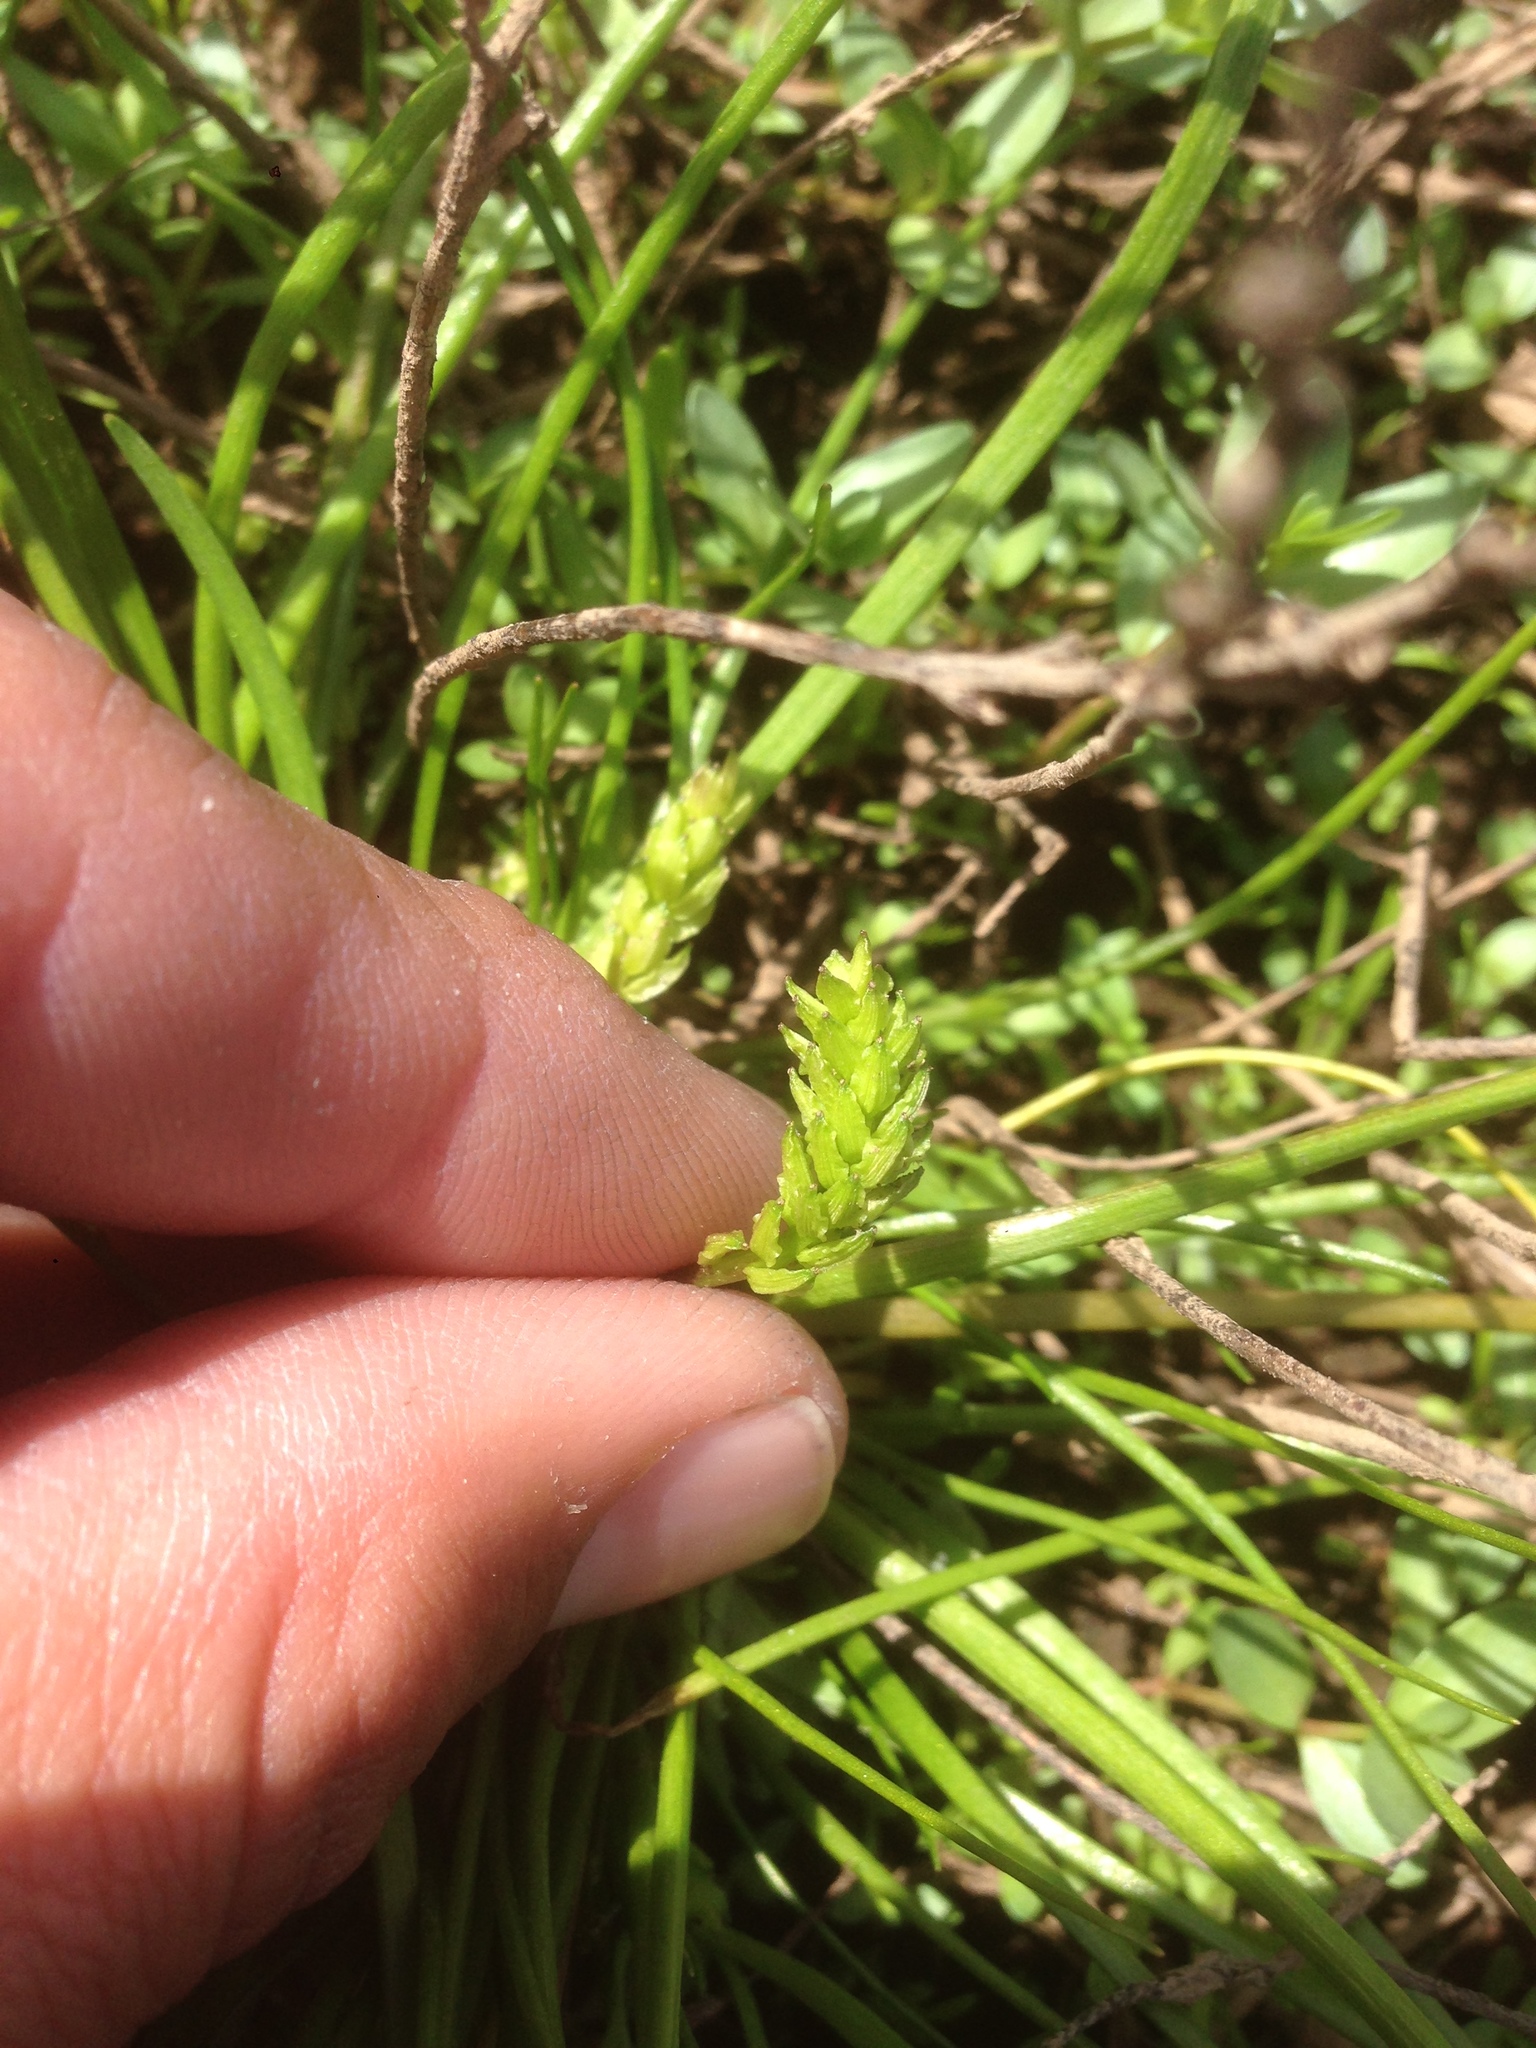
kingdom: Plantae
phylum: Tracheophyta
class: Liliopsida
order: Alismatales
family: Juncaginaceae
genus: Triglochin
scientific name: Triglochin scilloides
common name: Awl-leaved lilaea
